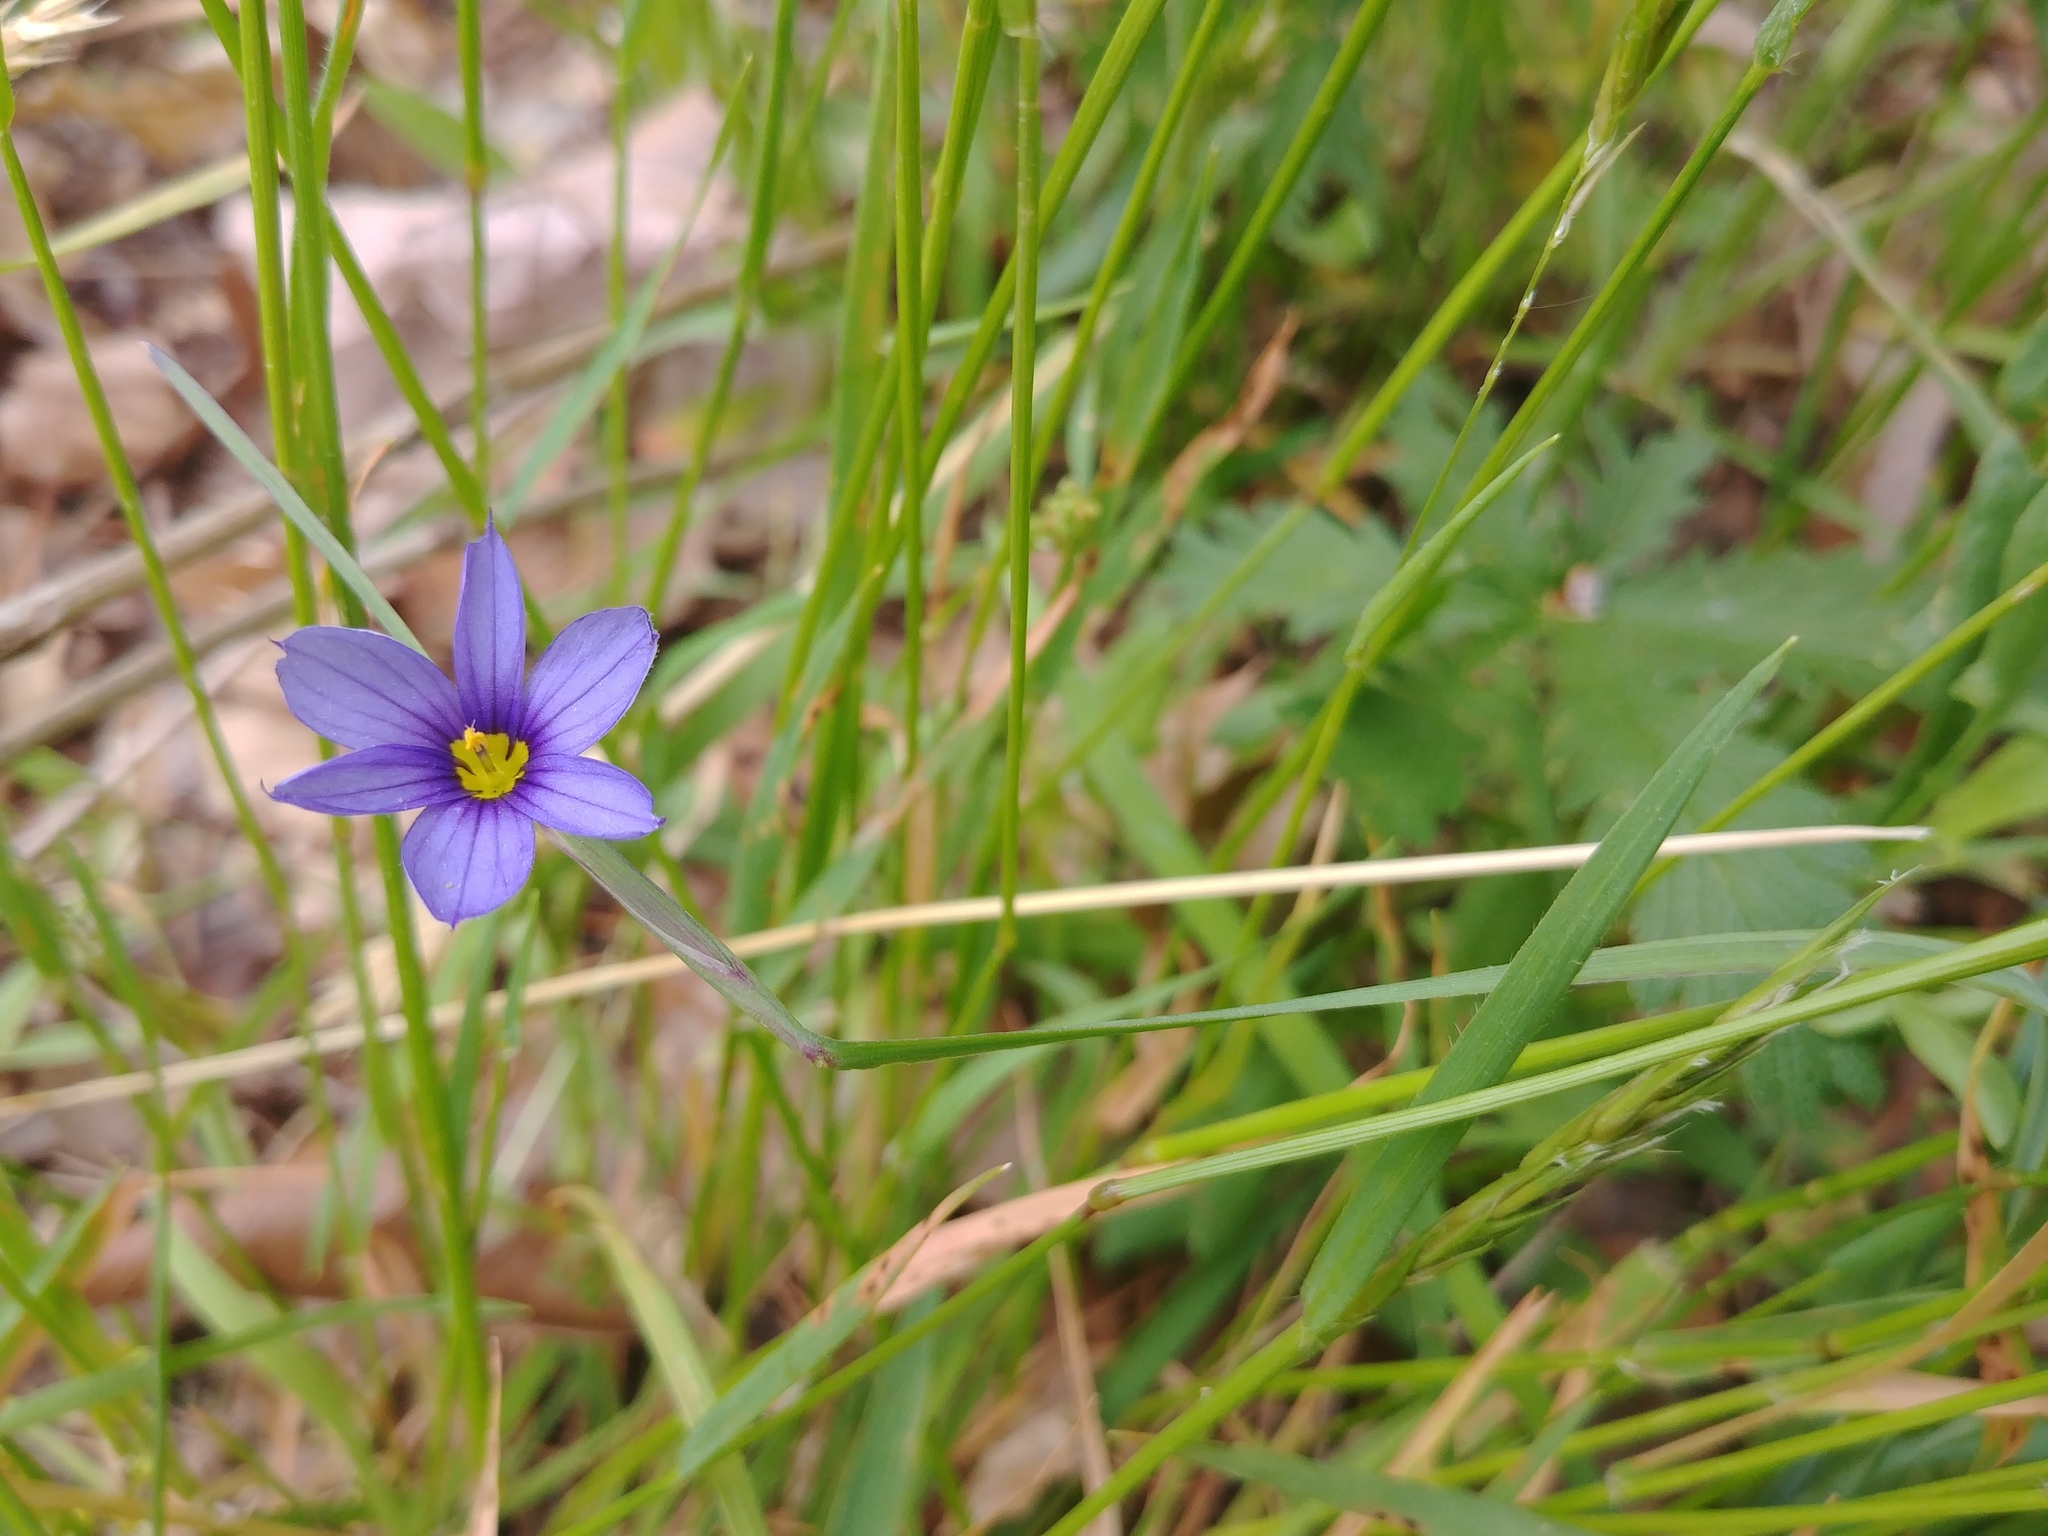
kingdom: Plantae
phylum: Tracheophyta
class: Liliopsida
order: Asparagales
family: Iridaceae
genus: Sisyrinchium
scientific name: Sisyrinchium montanum
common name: American blue-eyed-grass
